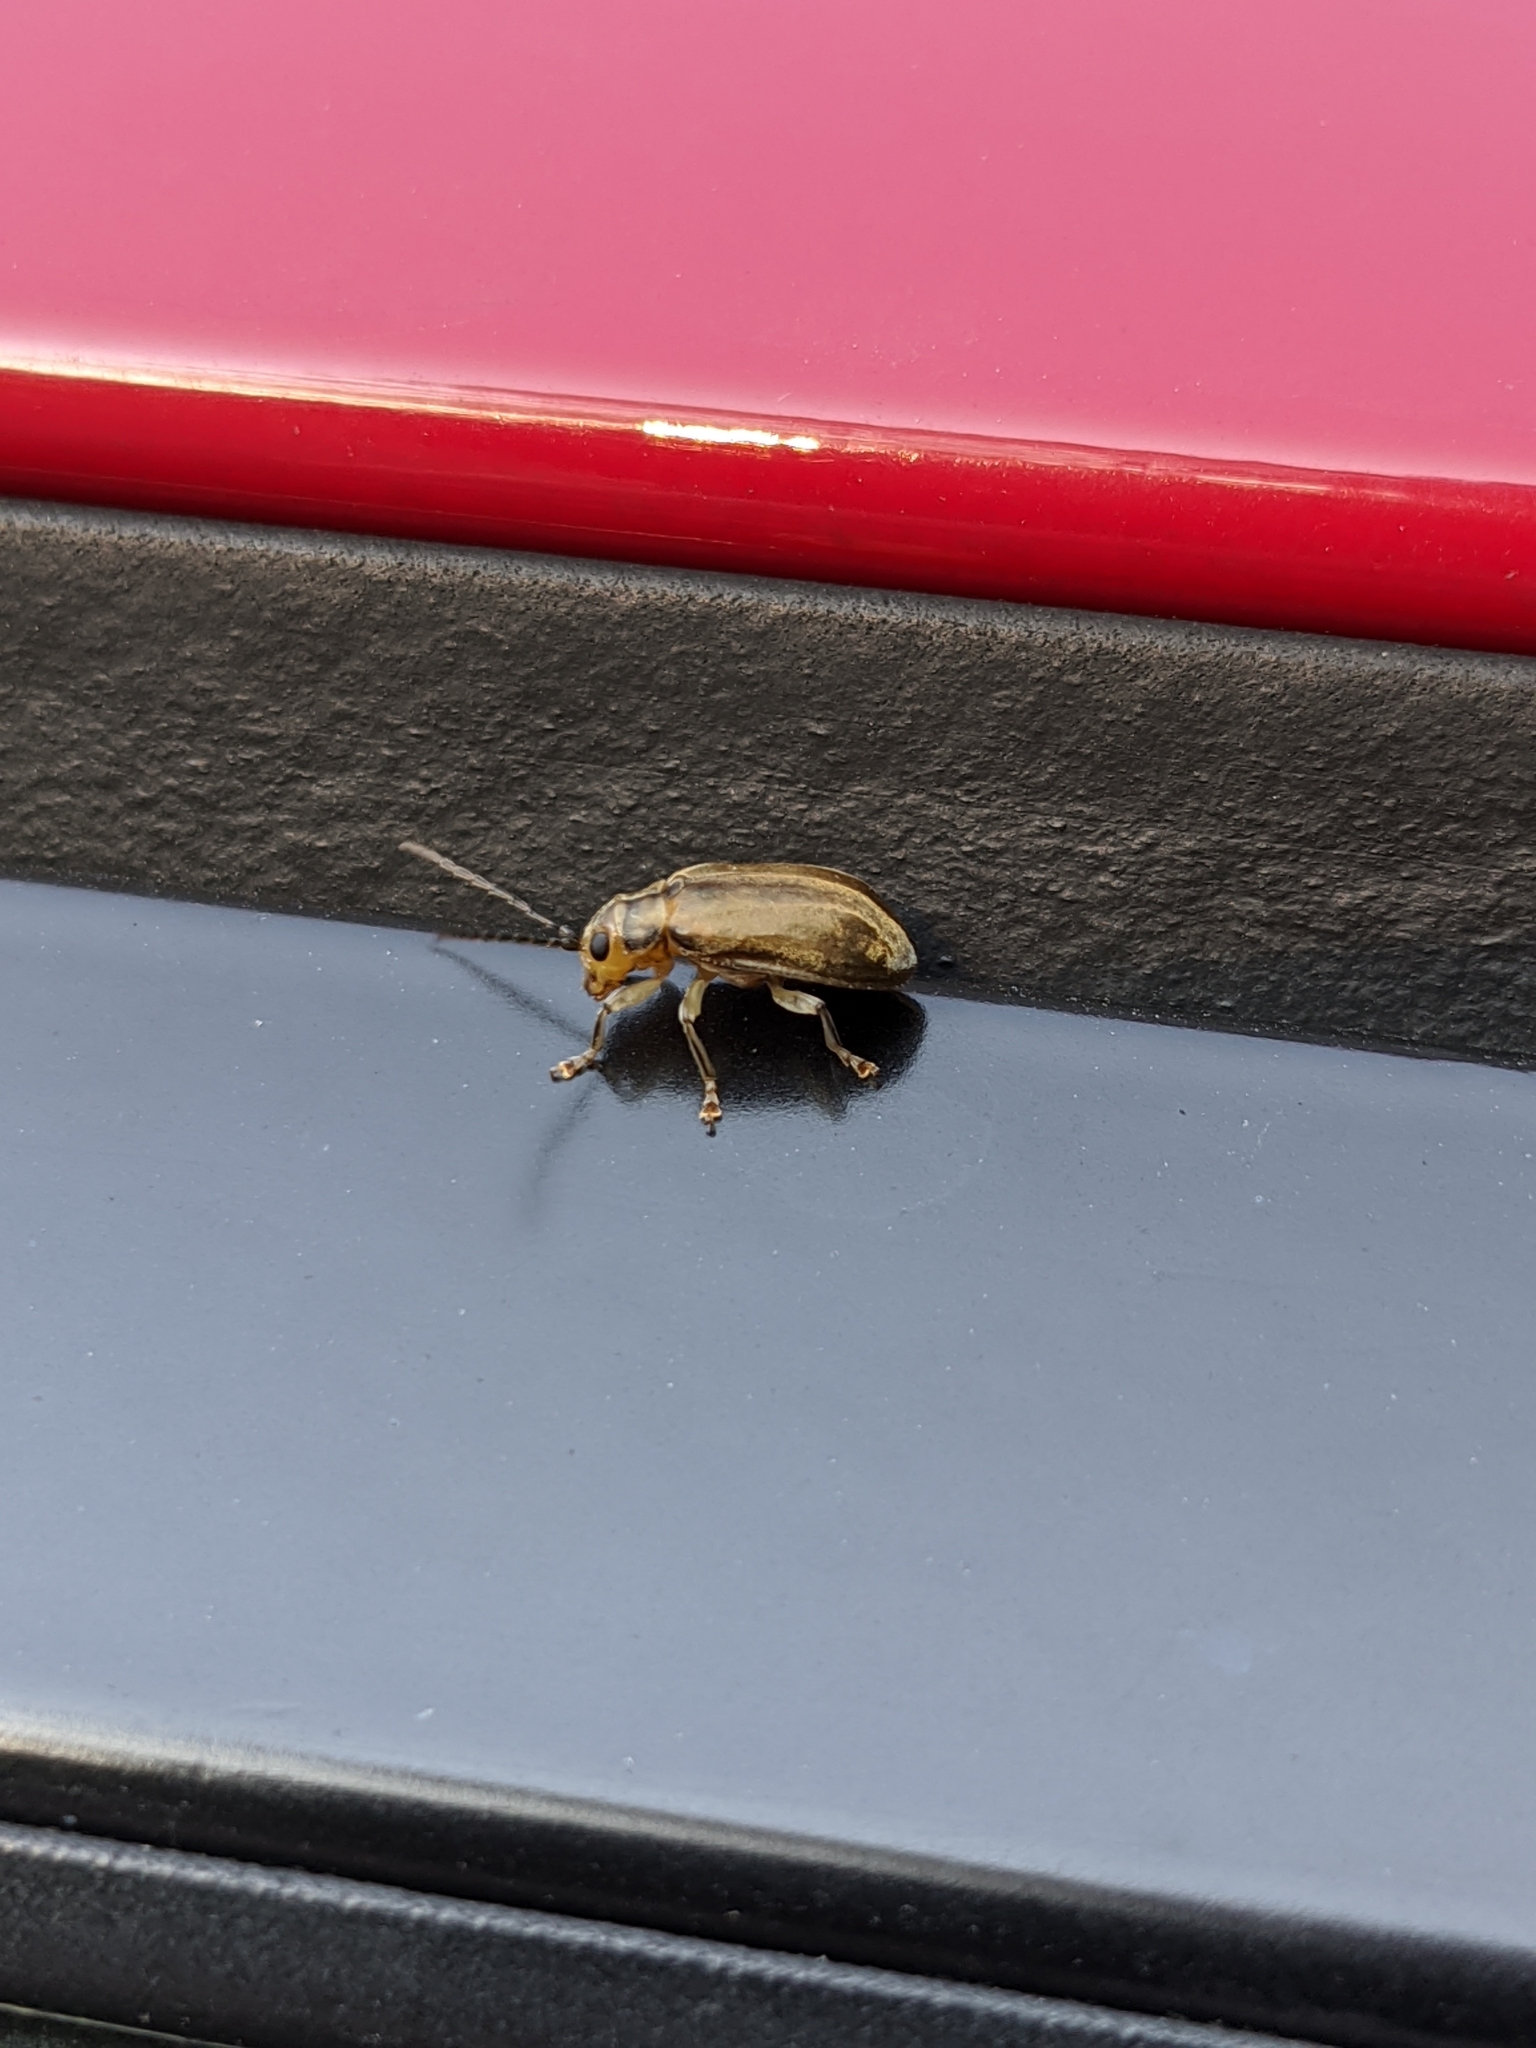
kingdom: Animalia
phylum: Arthropoda
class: Insecta
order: Coleoptera
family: Chrysomelidae
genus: Pyrrhalta
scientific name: Pyrrhalta viburni
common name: Guelder-rose leaf beetle
